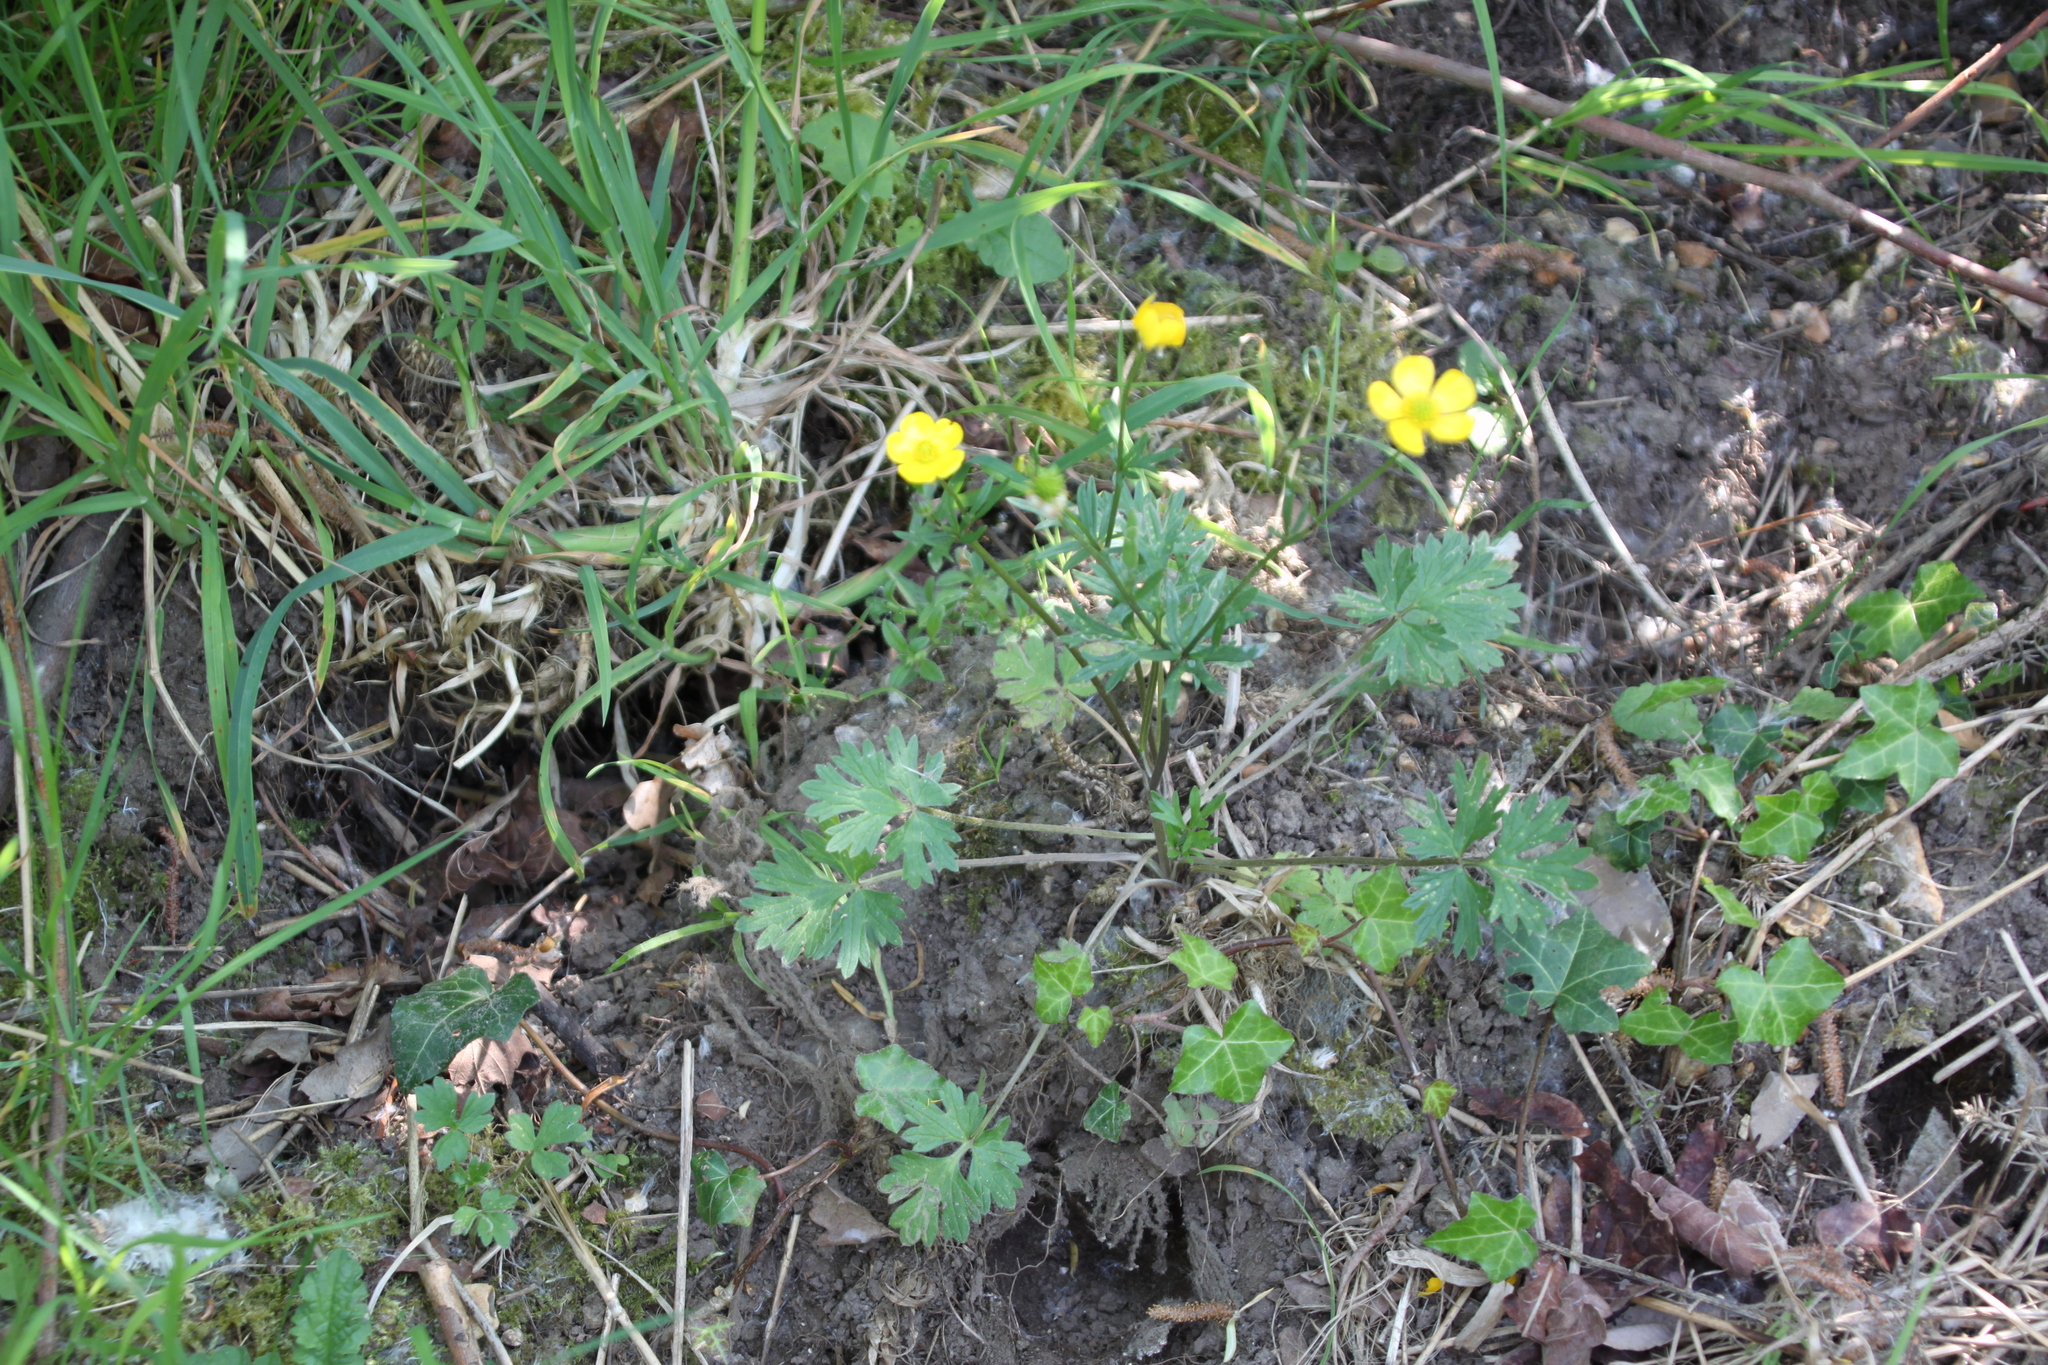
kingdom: Plantae
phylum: Tracheophyta
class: Magnoliopsida
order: Ranunculales
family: Ranunculaceae
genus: Ranunculus
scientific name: Ranunculus acris
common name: Meadow buttercup
